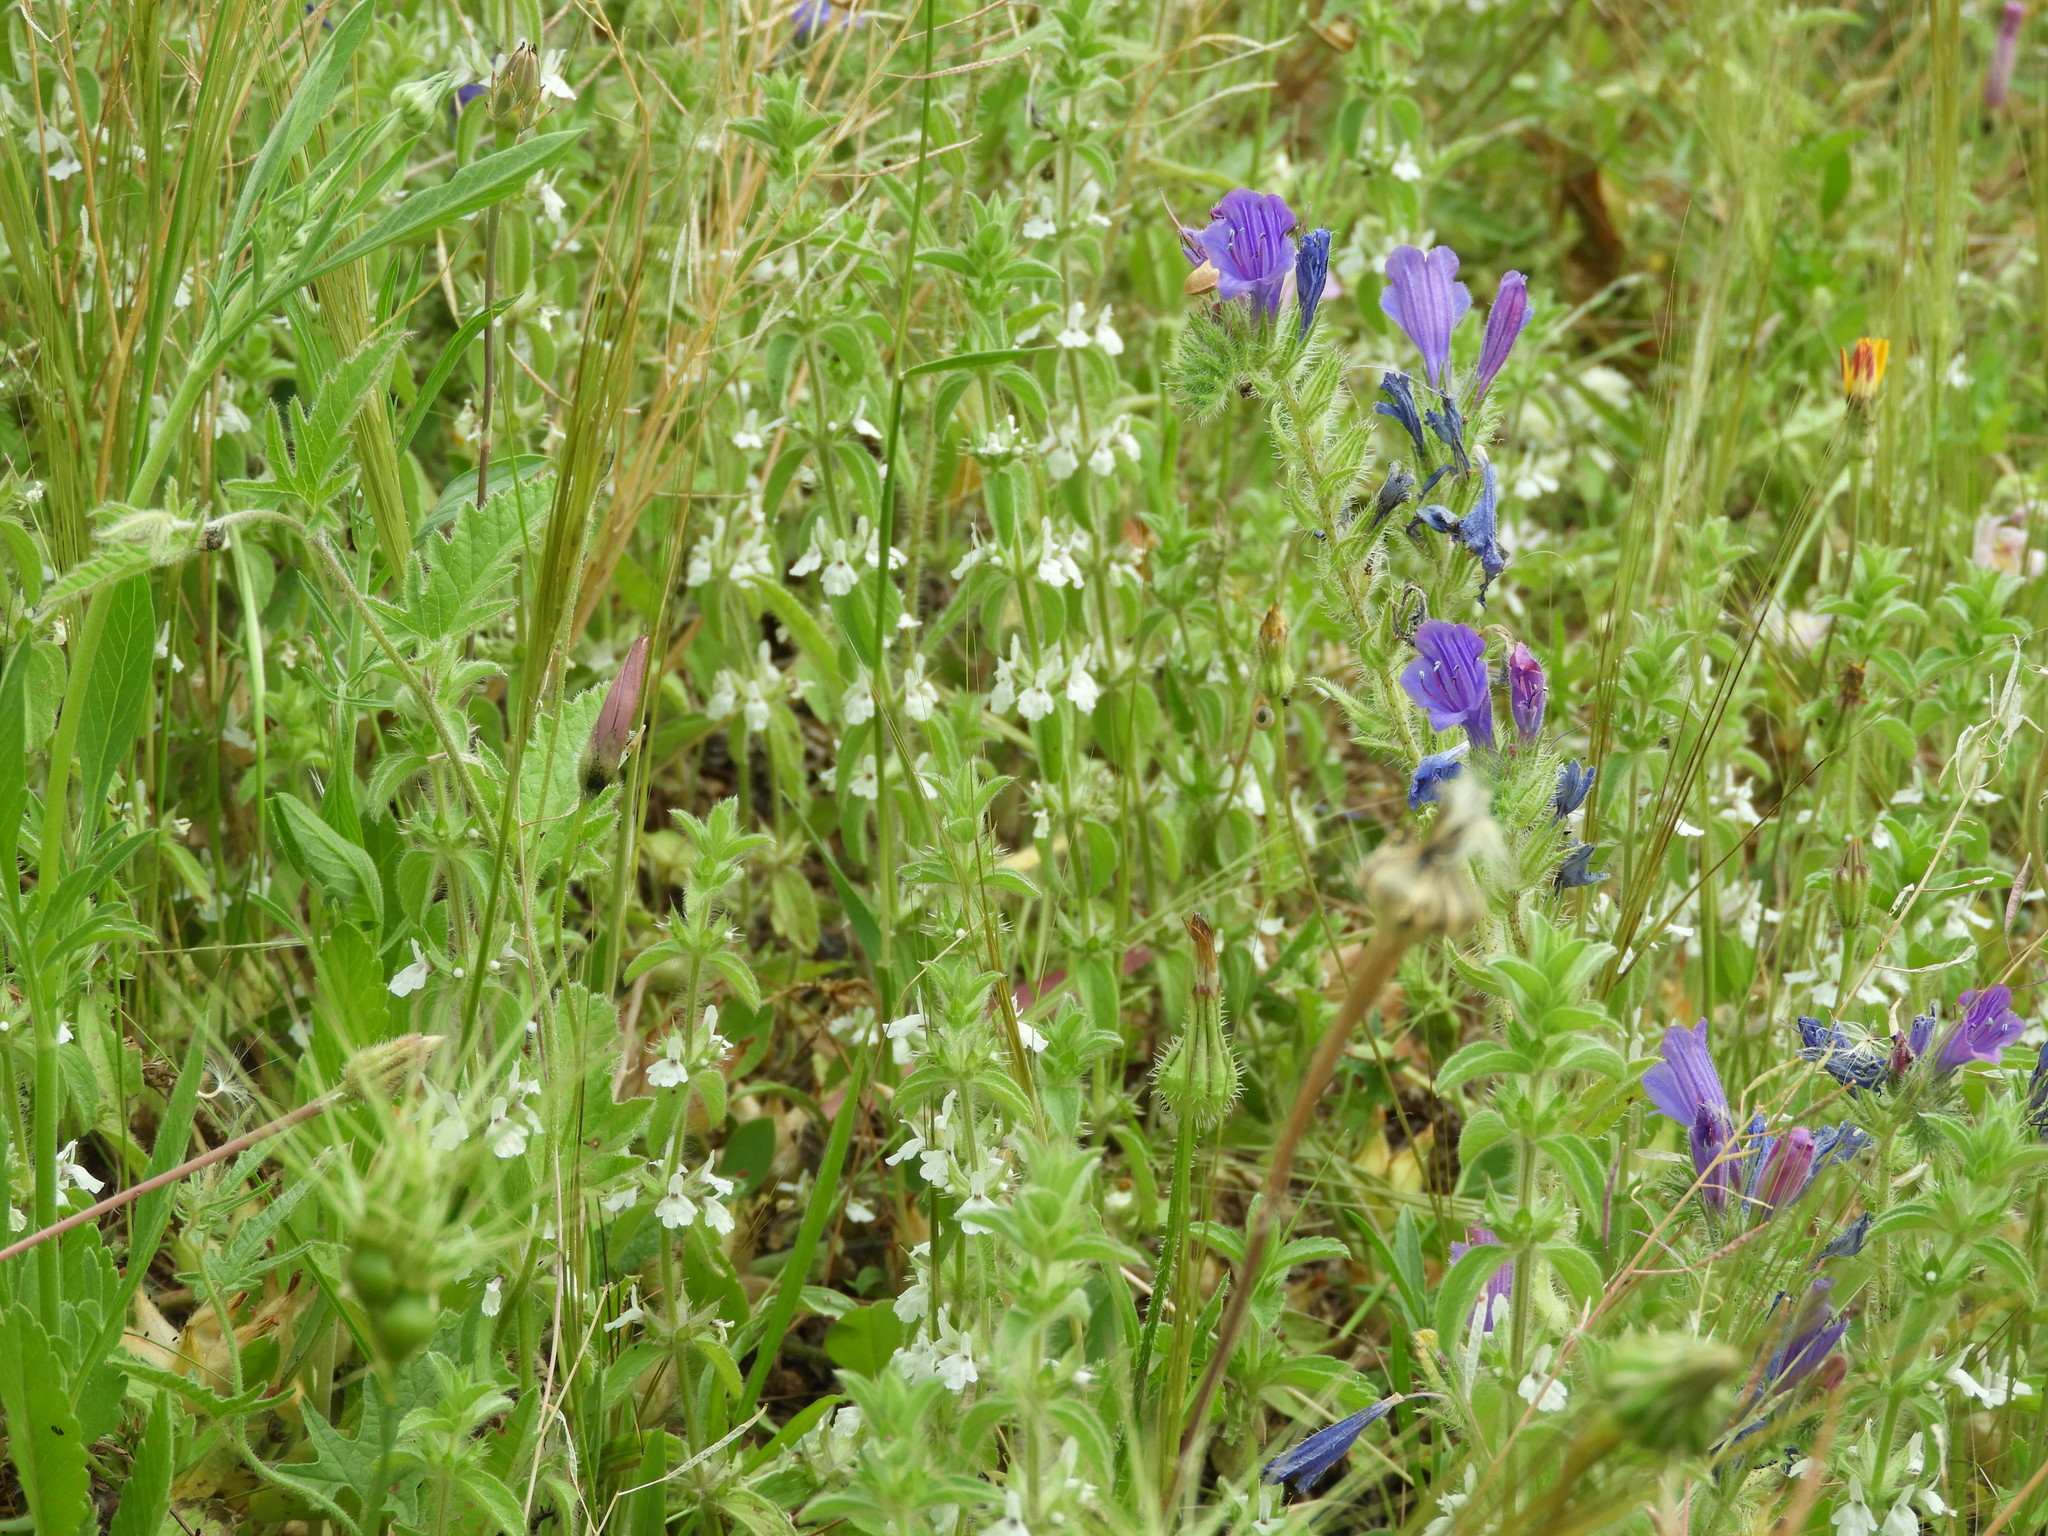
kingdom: Plantae
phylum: Tracheophyta
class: Magnoliopsida
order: Lamiales
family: Lamiaceae
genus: Sideritis
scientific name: Sideritis romana
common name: Simplebeak ironwort
